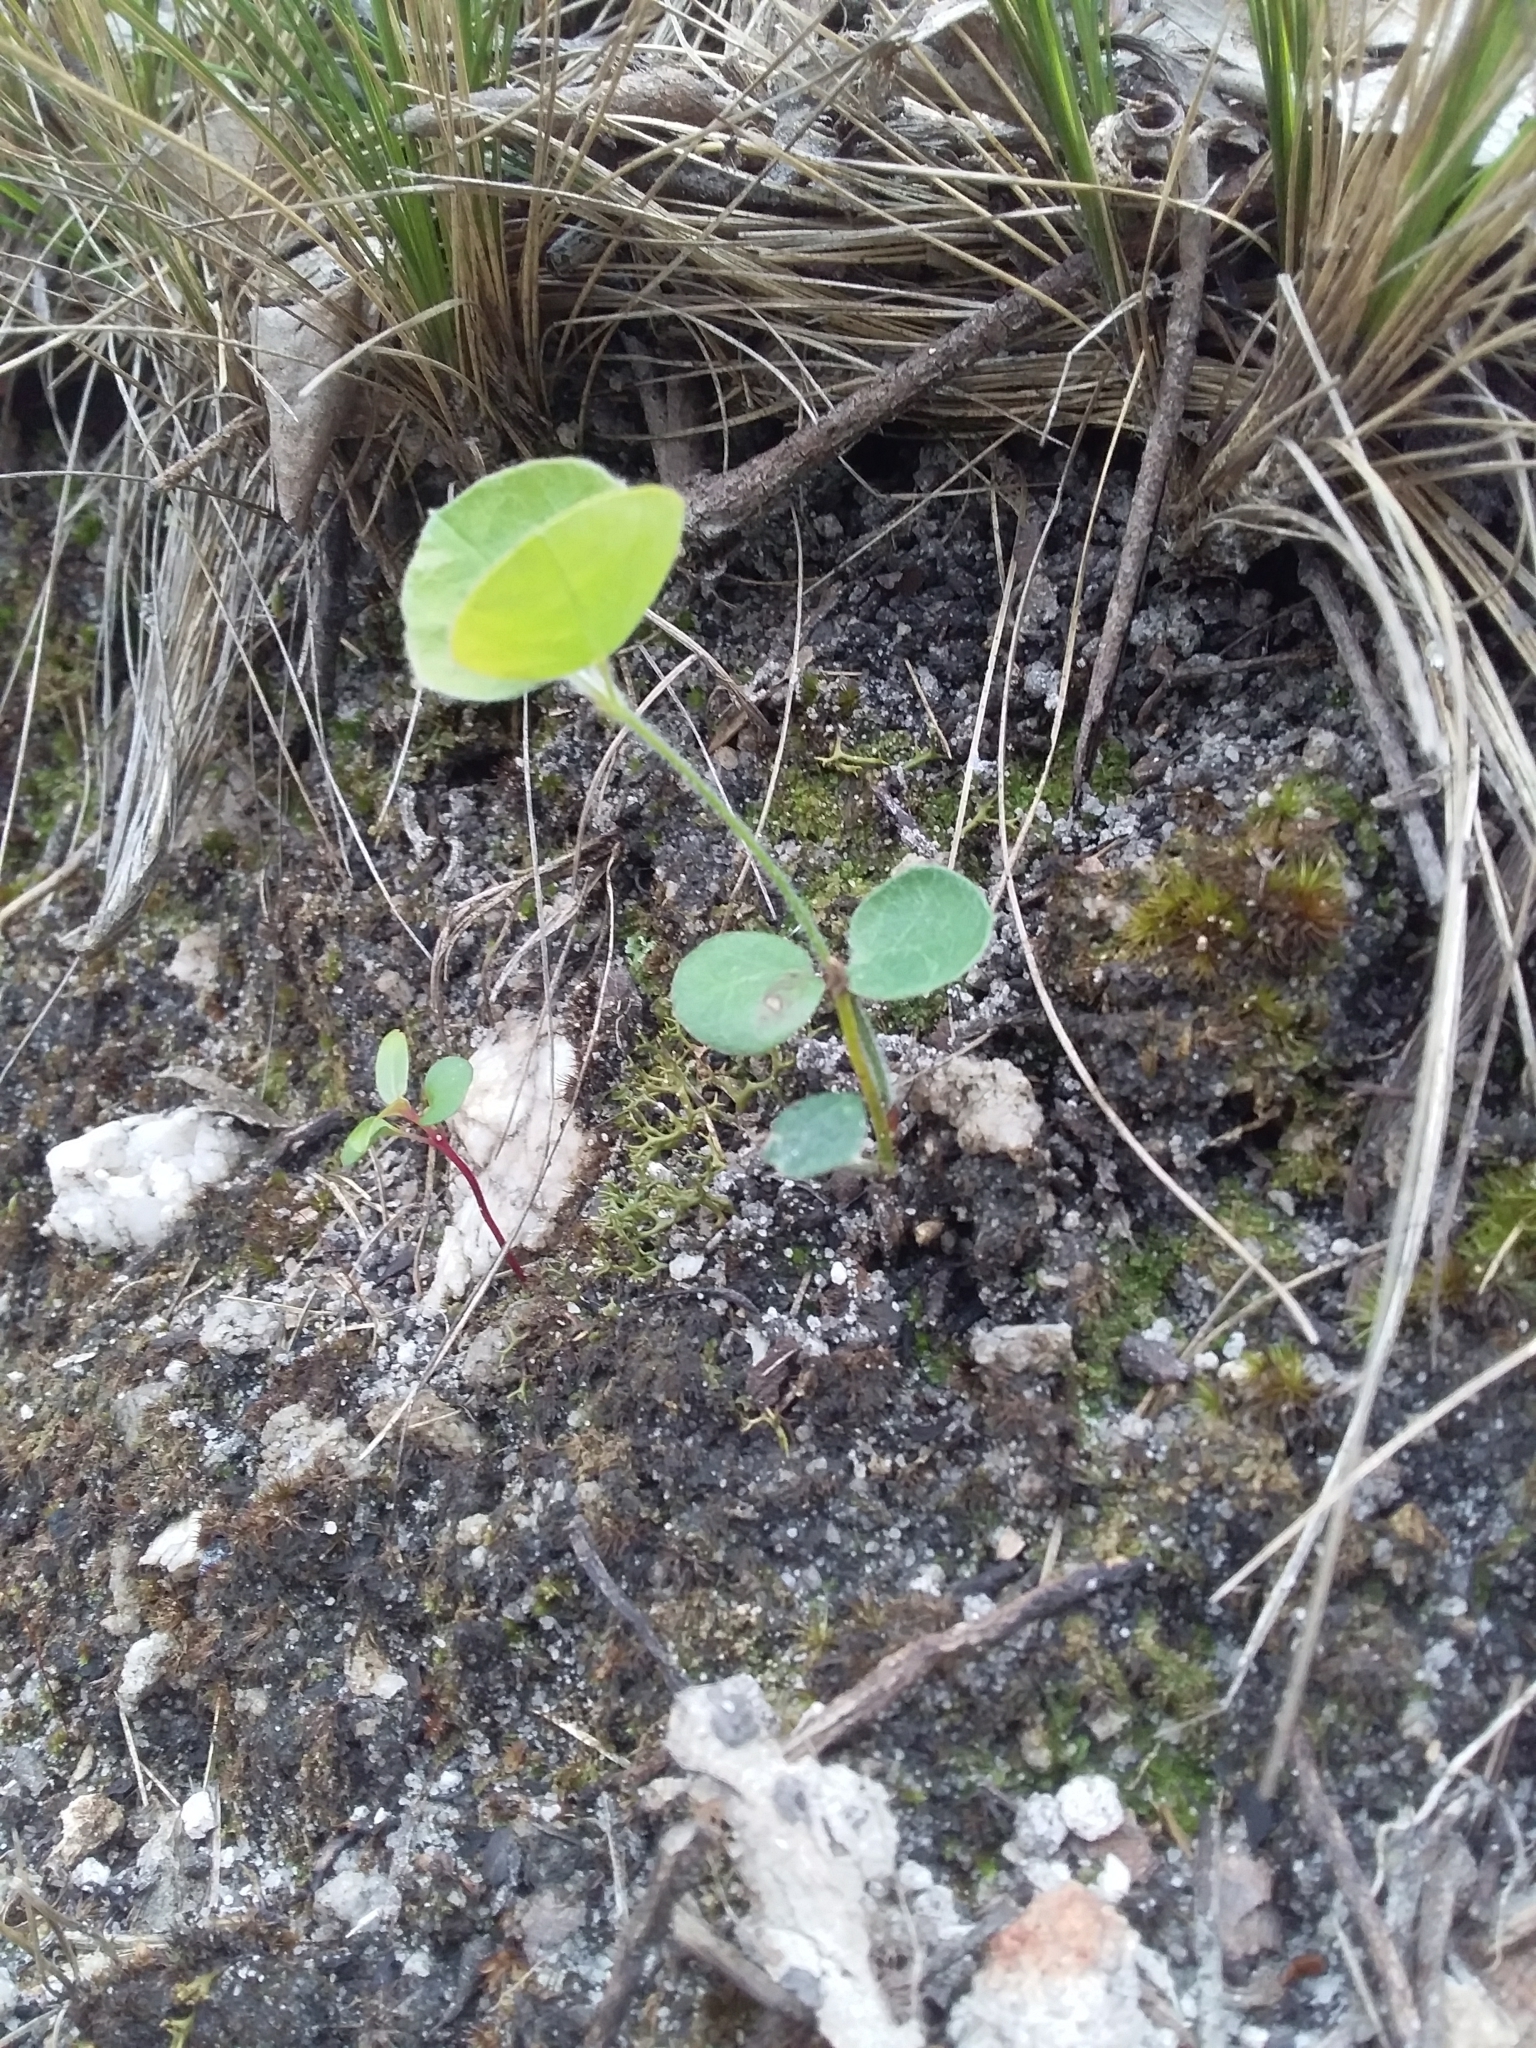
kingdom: Plantae
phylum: Tracheophyta
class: Magnoliopsida
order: Fabales
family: Fabaceae
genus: Platylobium
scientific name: Platylobium obtusangulum
